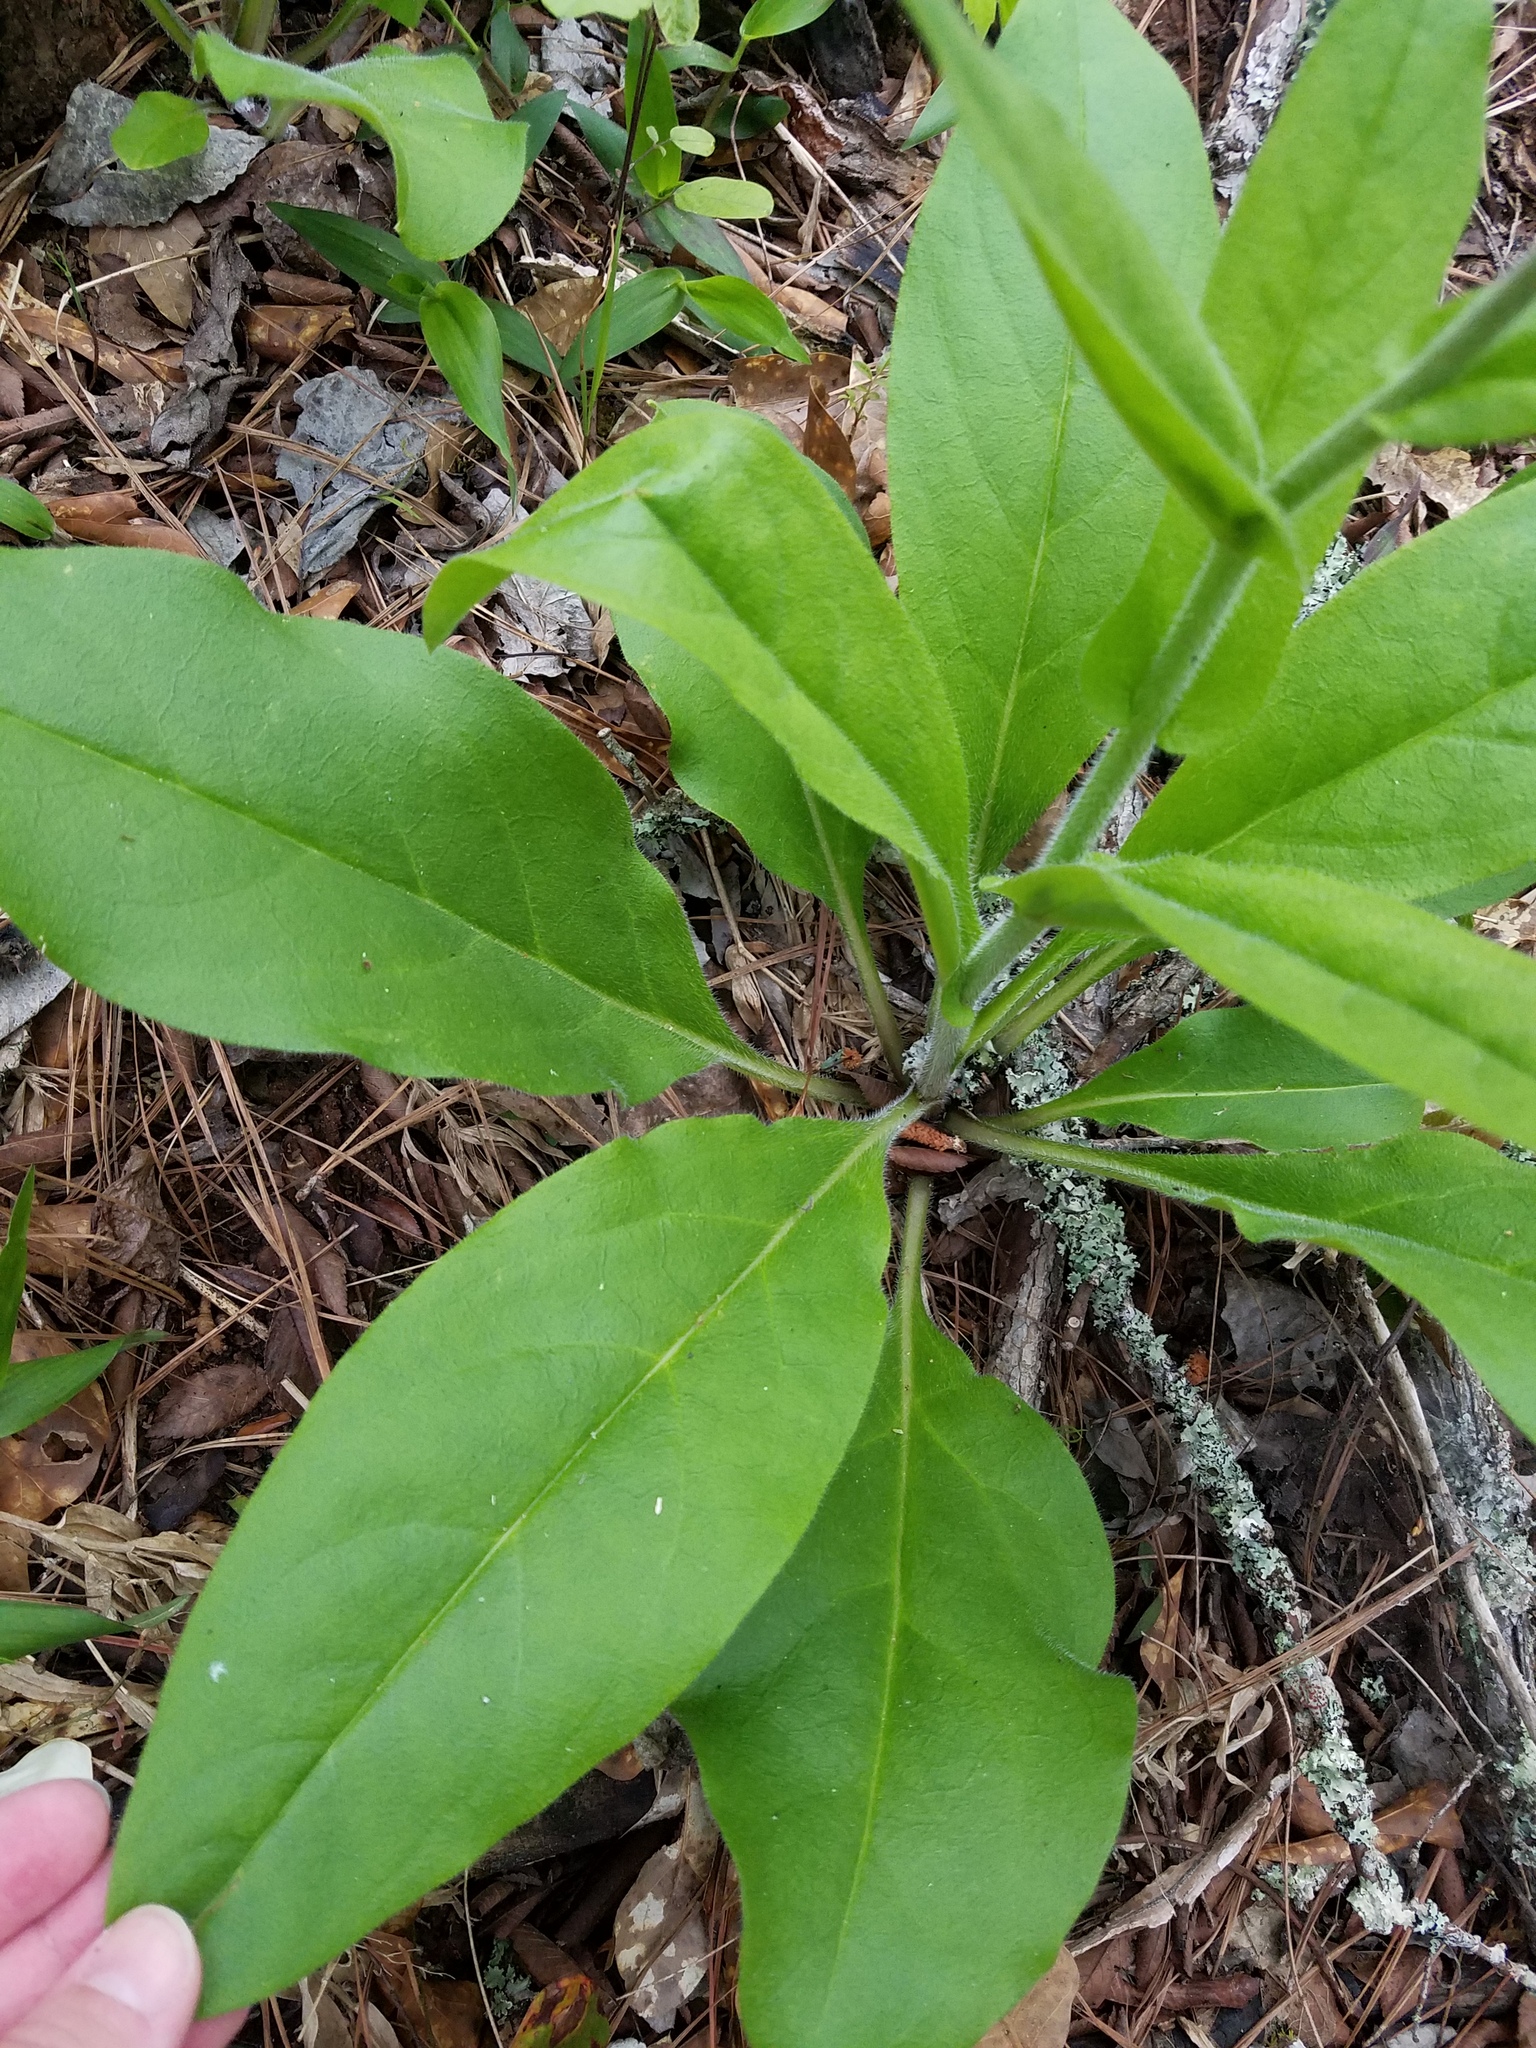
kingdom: Plantae
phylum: Tracheophyta
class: Magnoliopsida
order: Boraginales
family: Boraginaceae
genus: Andersonglossum
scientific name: Andersonglossum virginianum
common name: Wild comfrey
